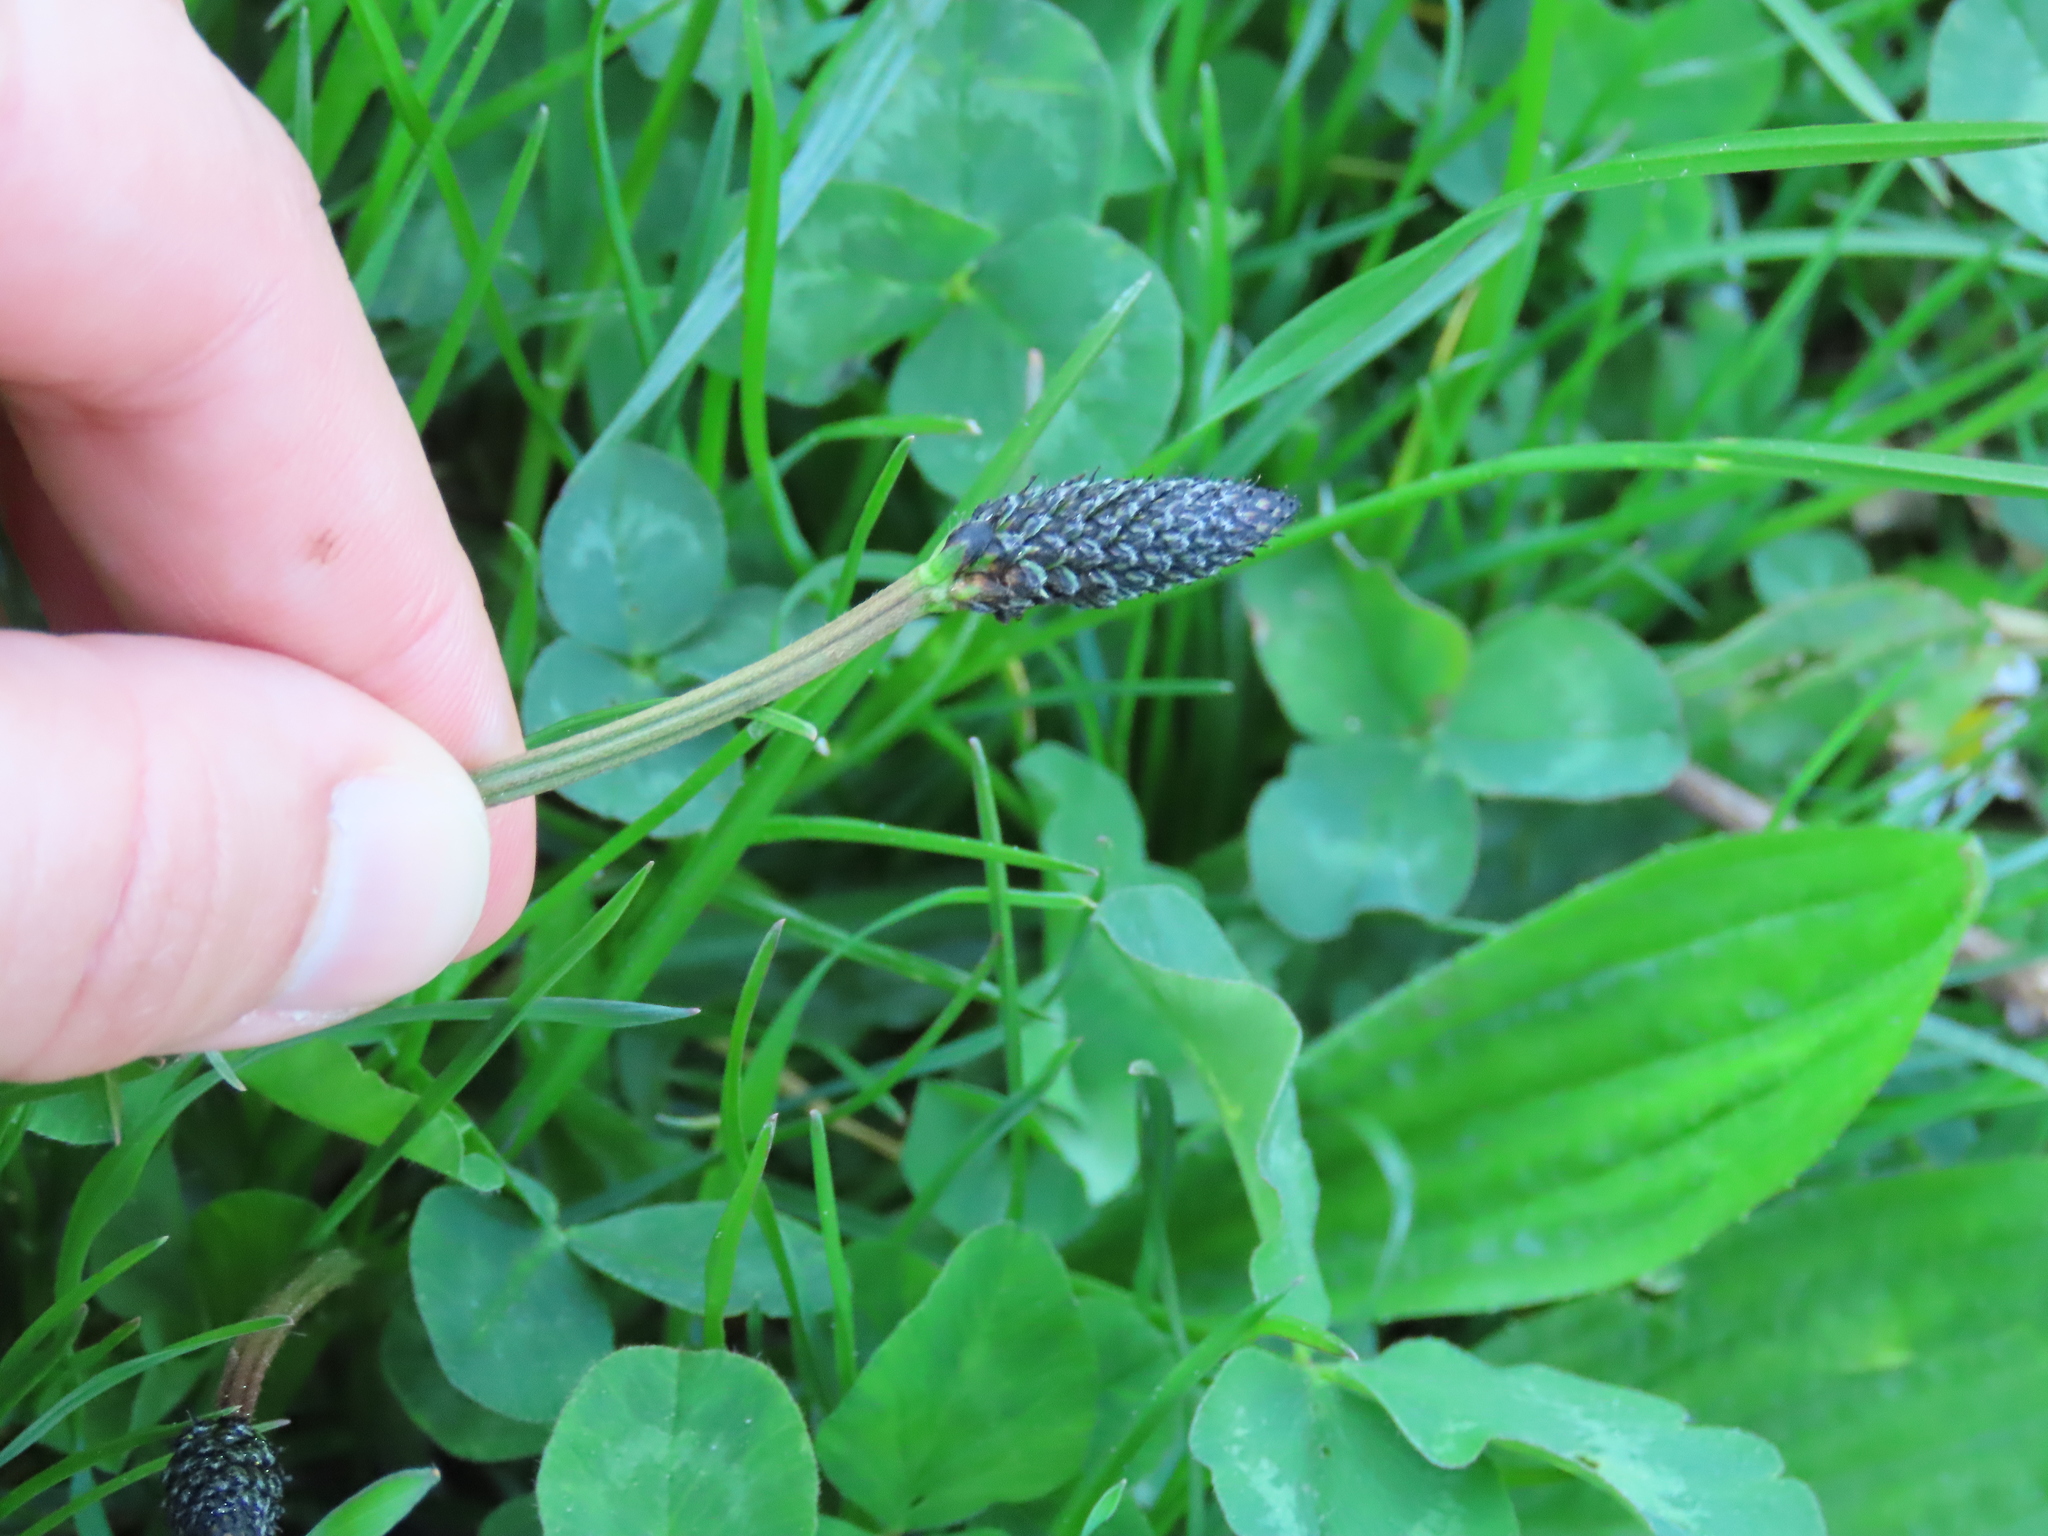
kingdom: Plantae
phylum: Tracheophyta
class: Magnoliopsida
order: Lamiales
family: Plantaginaceae
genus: Plantago
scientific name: Plantago lanceolata
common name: Ribwort plantain
